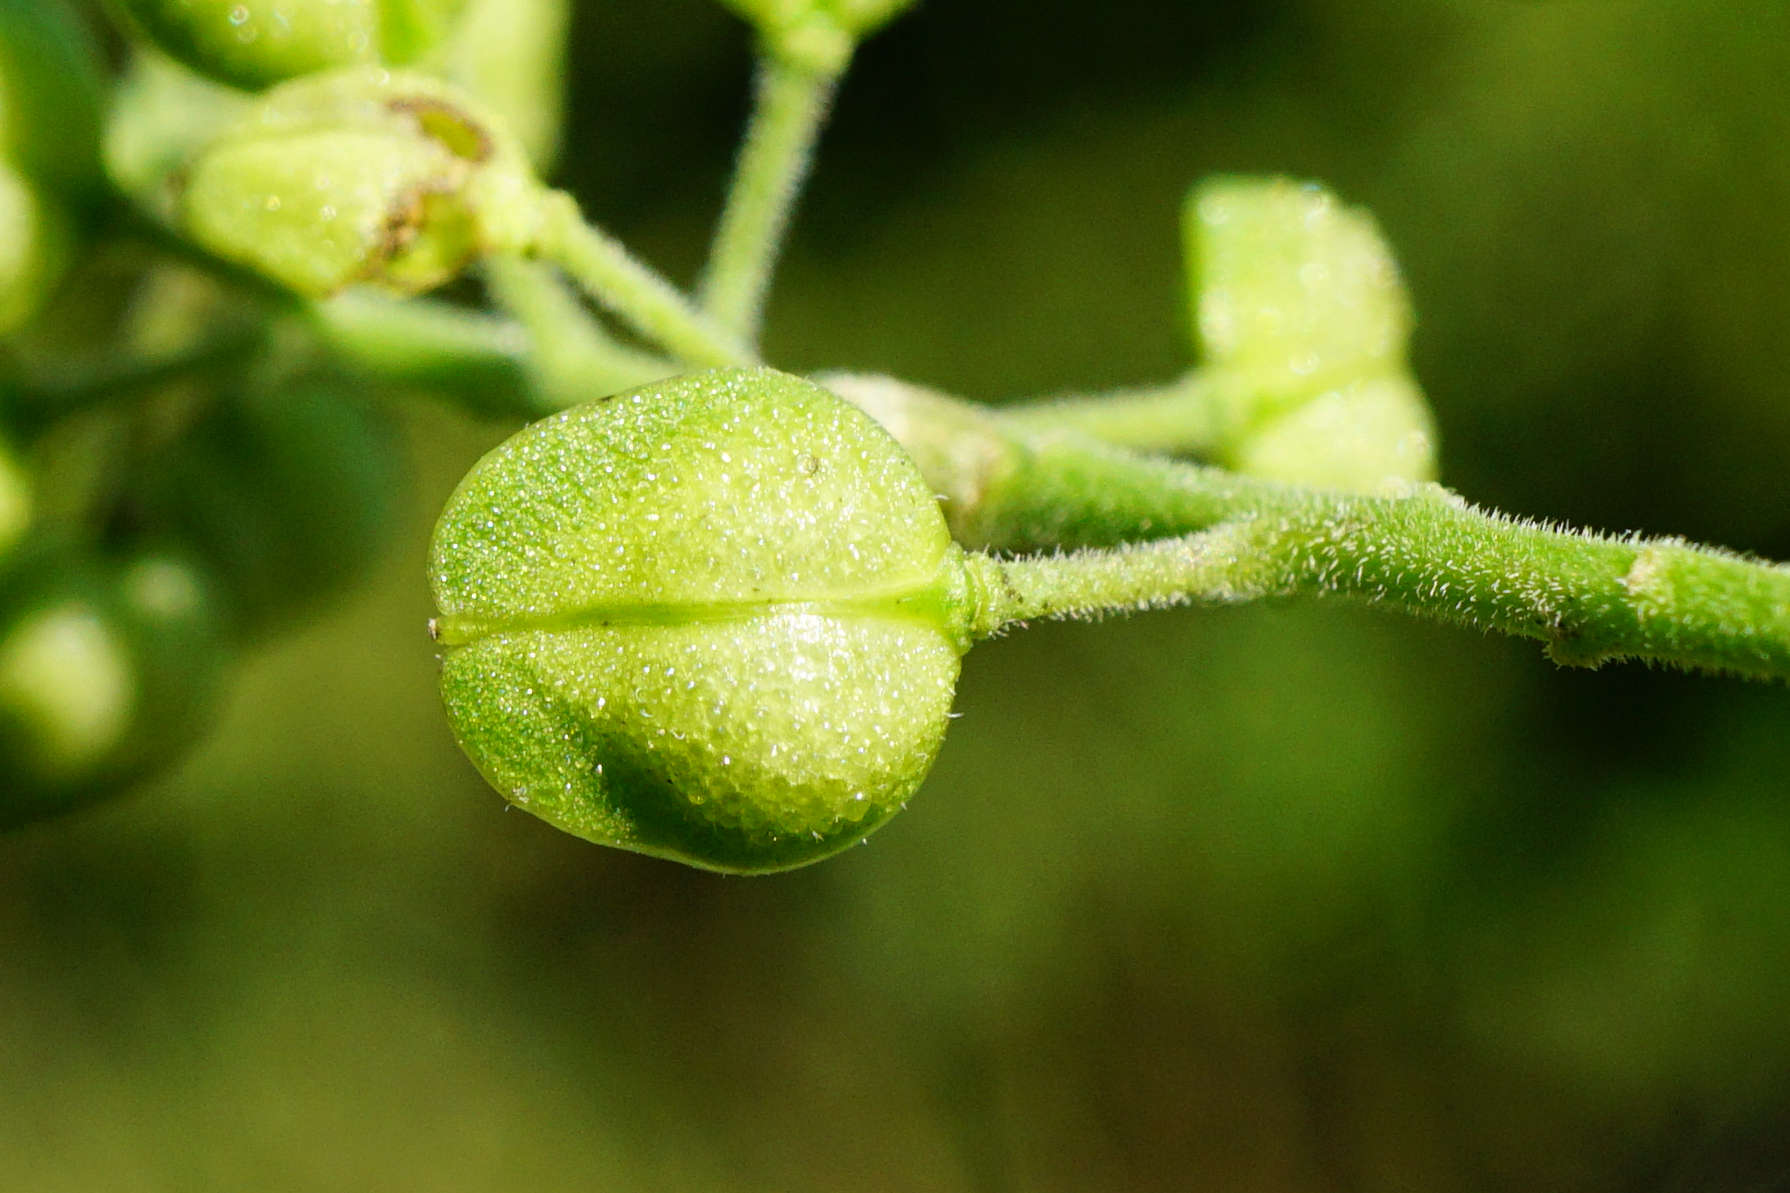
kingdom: Plantae
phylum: Tracheophyta
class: Magnoliopsida
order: Brassicales
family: Brassicaceae
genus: Lepidium
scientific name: Lepidium campestre
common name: Field pepperwort
